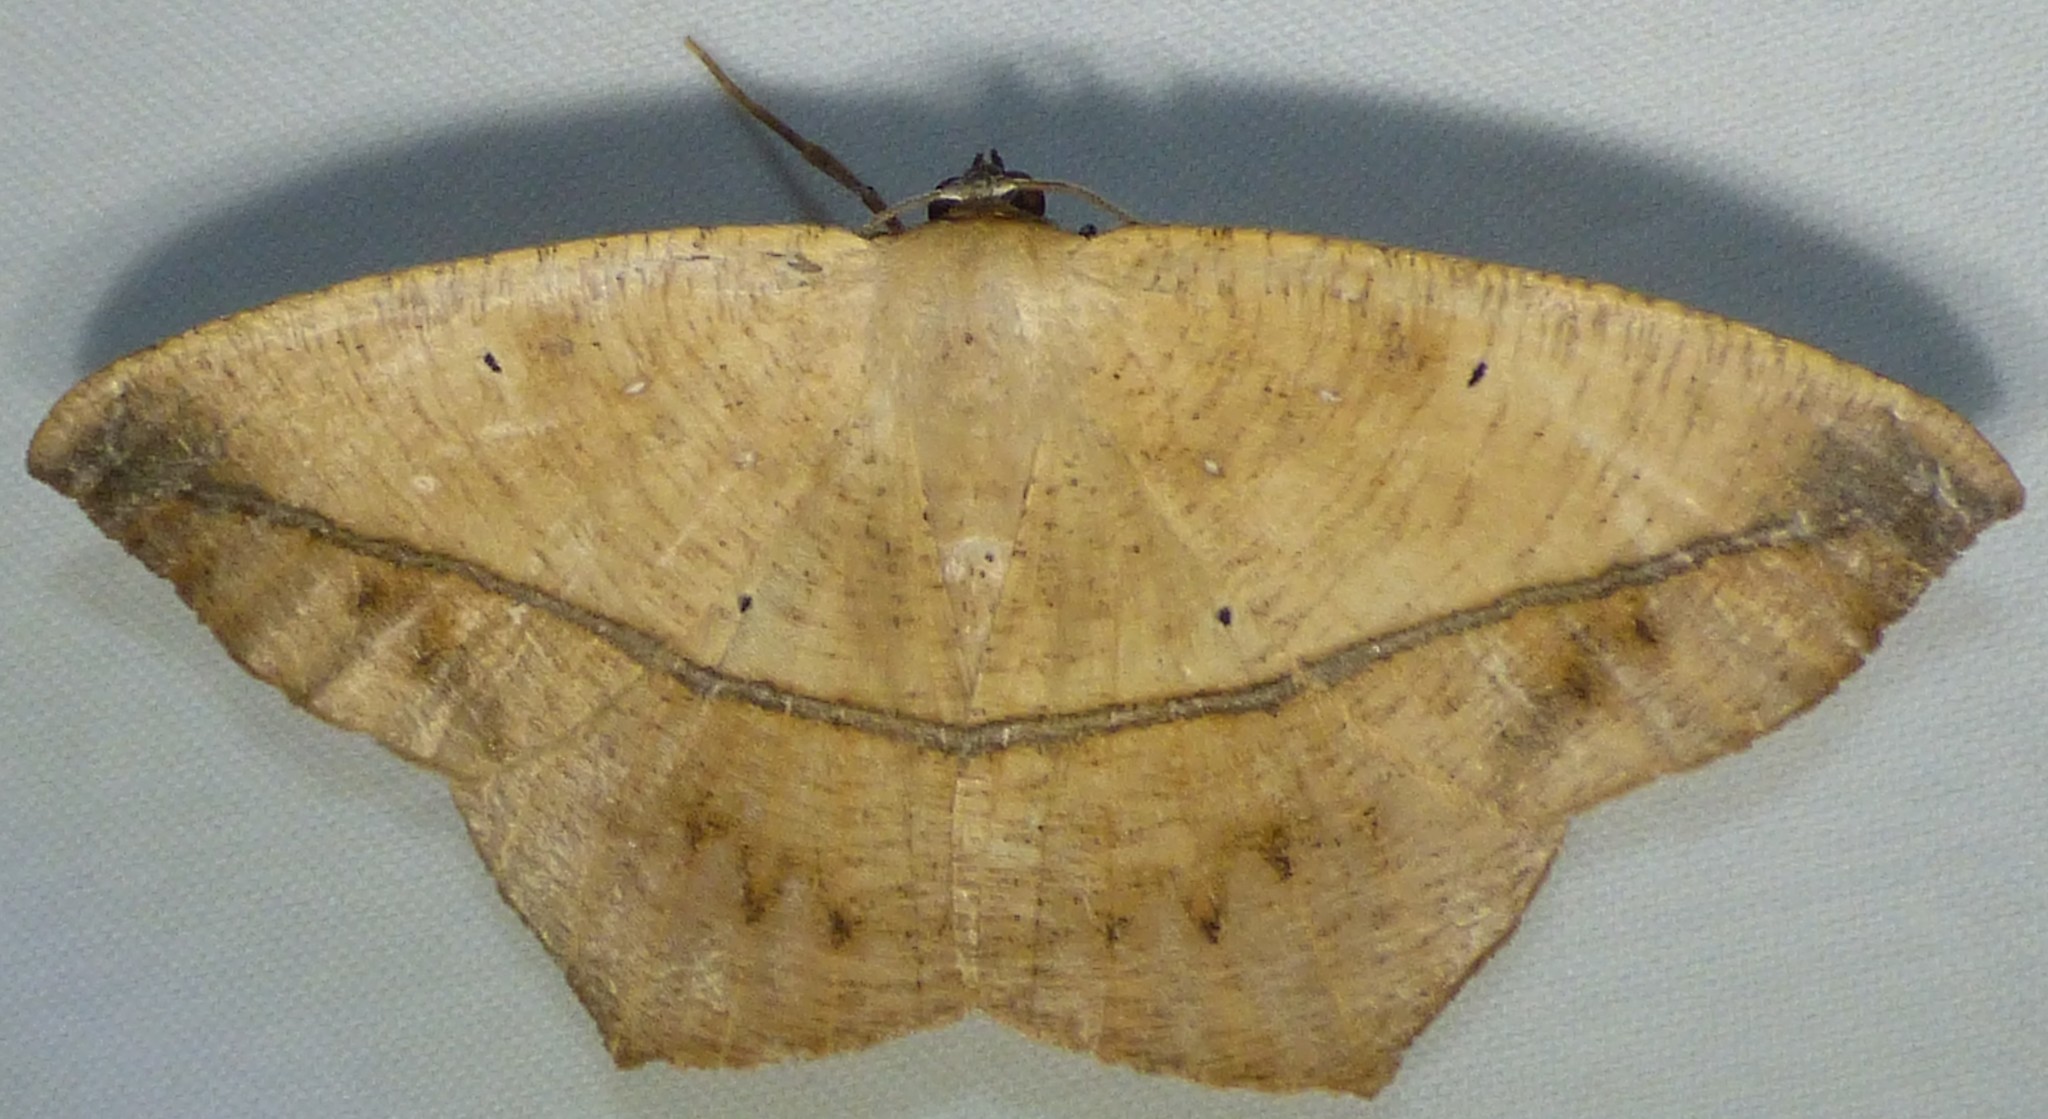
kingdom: Animalia
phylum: Arthropoda
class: Insecta
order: Lepidoptera
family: Geometridae
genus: Prochoerodes
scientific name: Prochoerodes lineola
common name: Large maple spanworm
